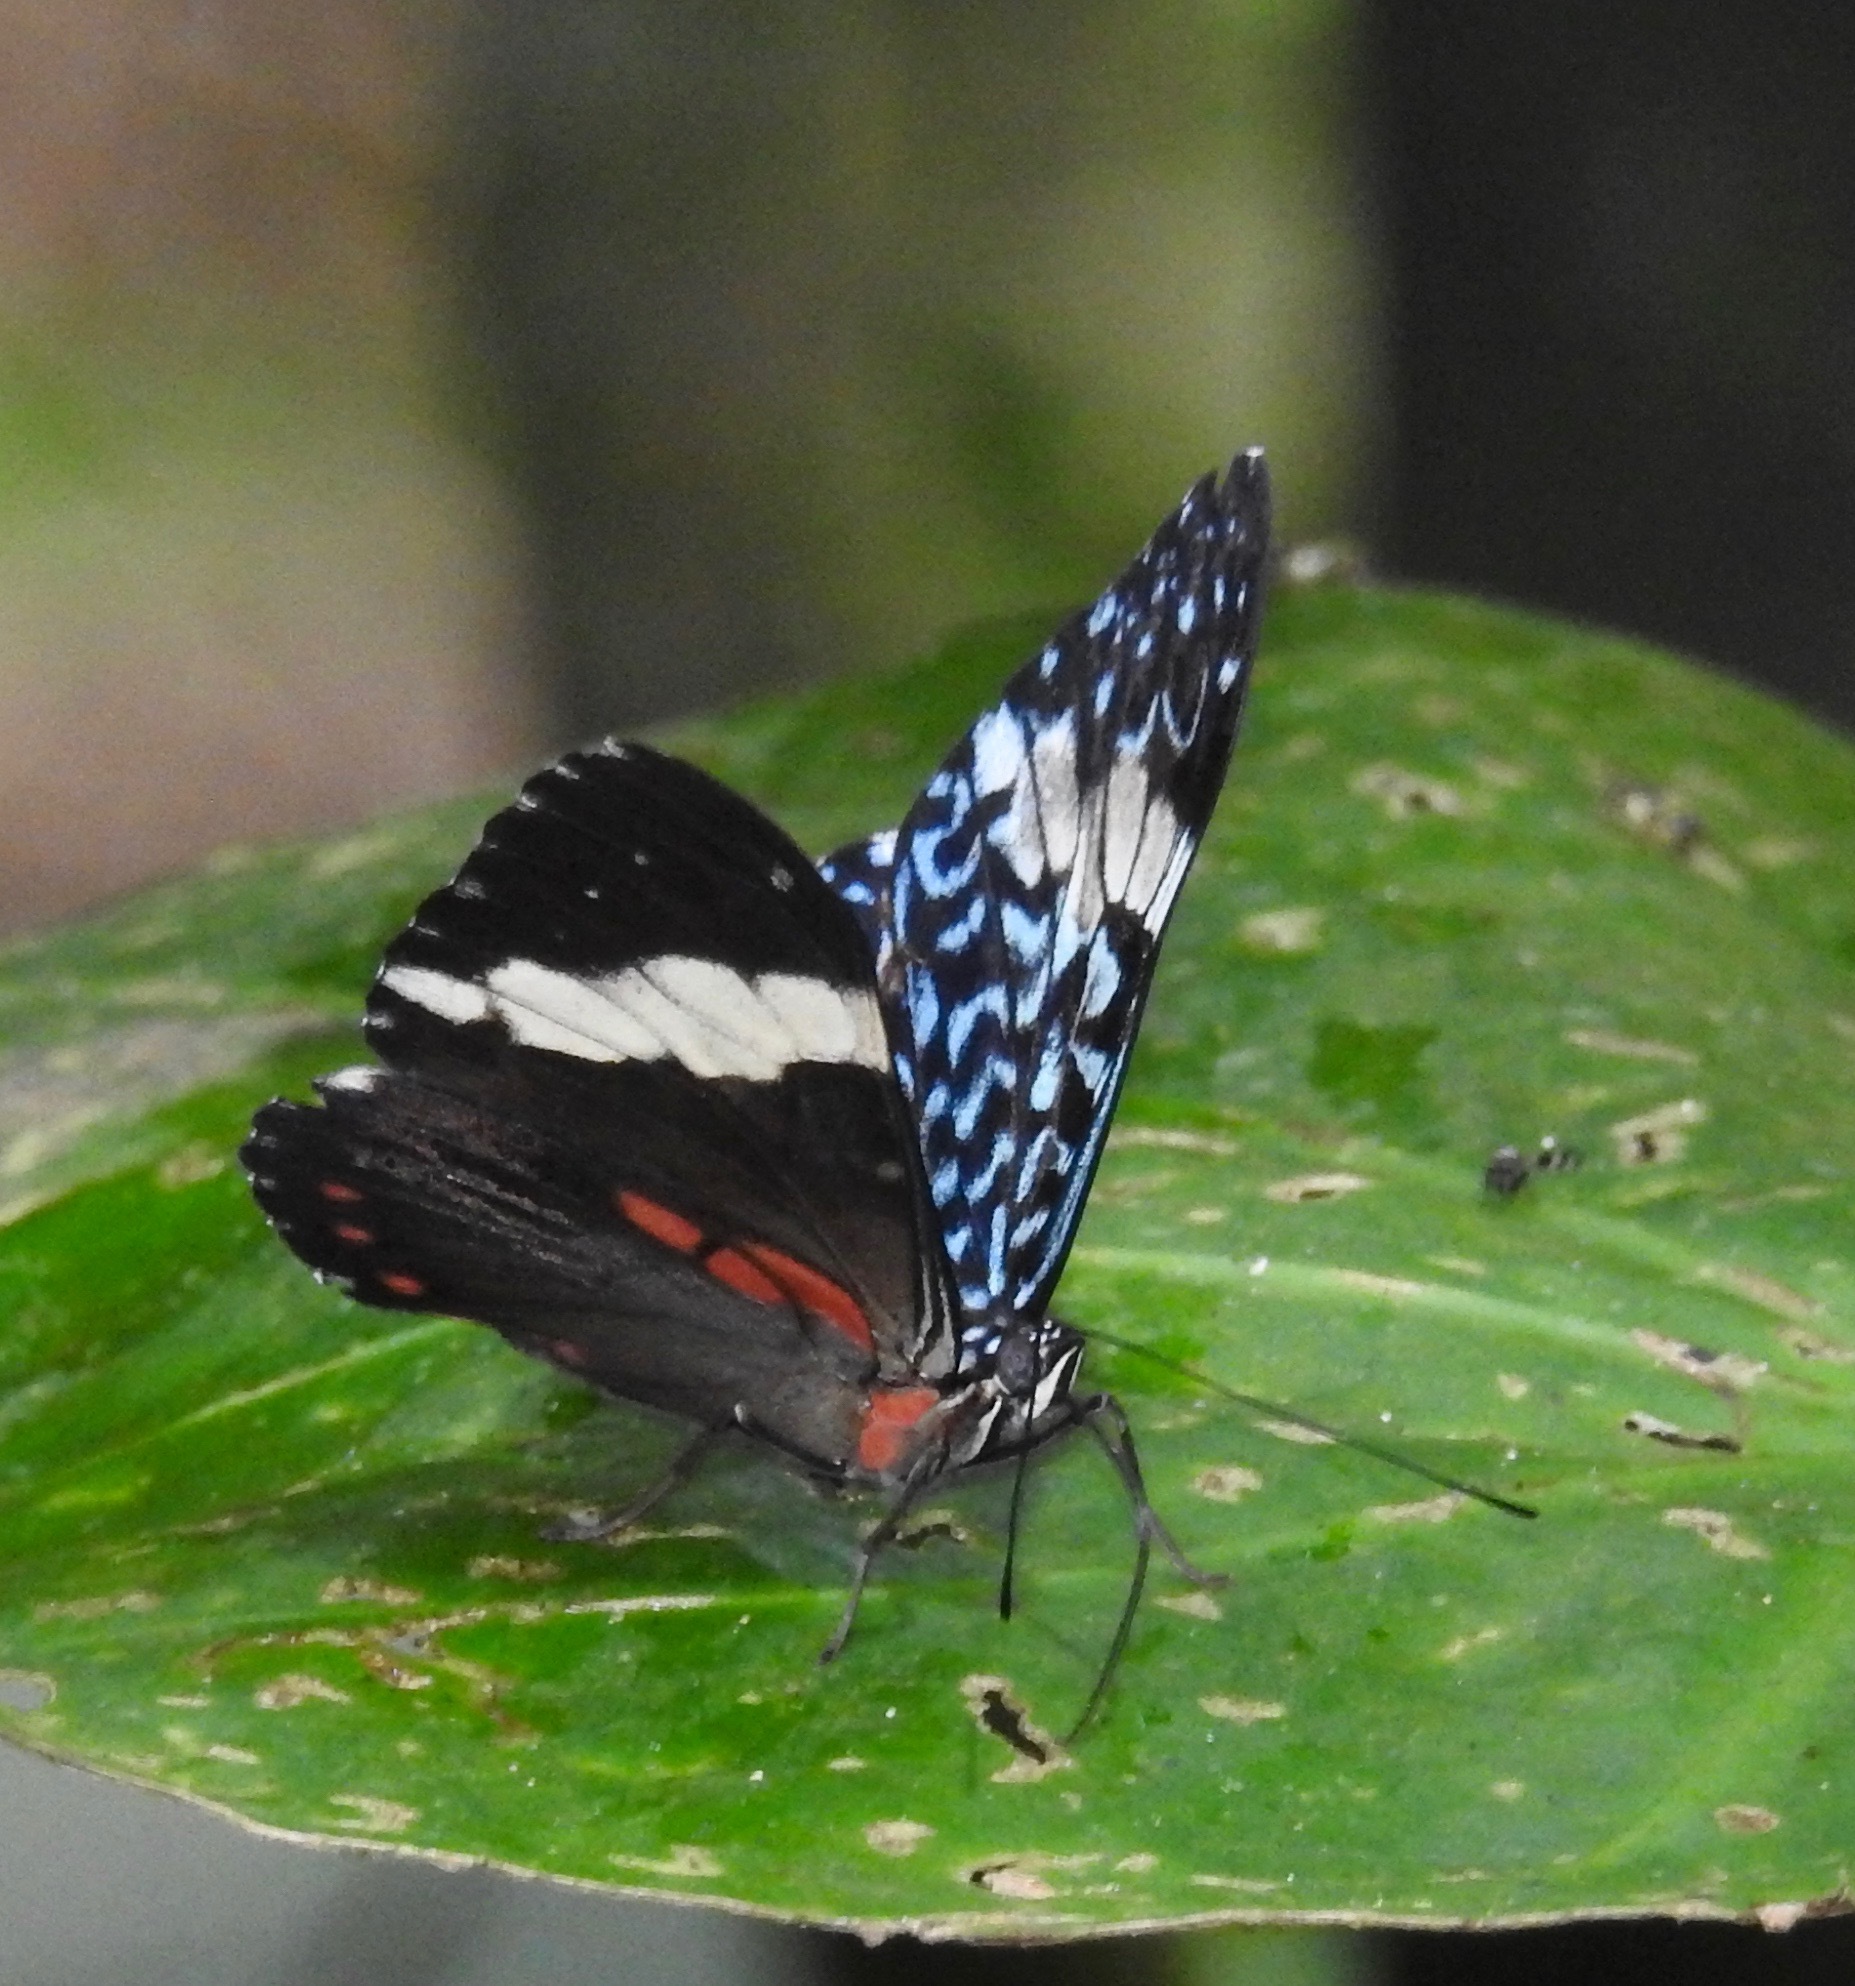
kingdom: Animalia
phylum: Arthropoda
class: Insecta
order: Lepidoptera
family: Nymphalidae
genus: Hamadryas
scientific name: Hamadryas arinome
